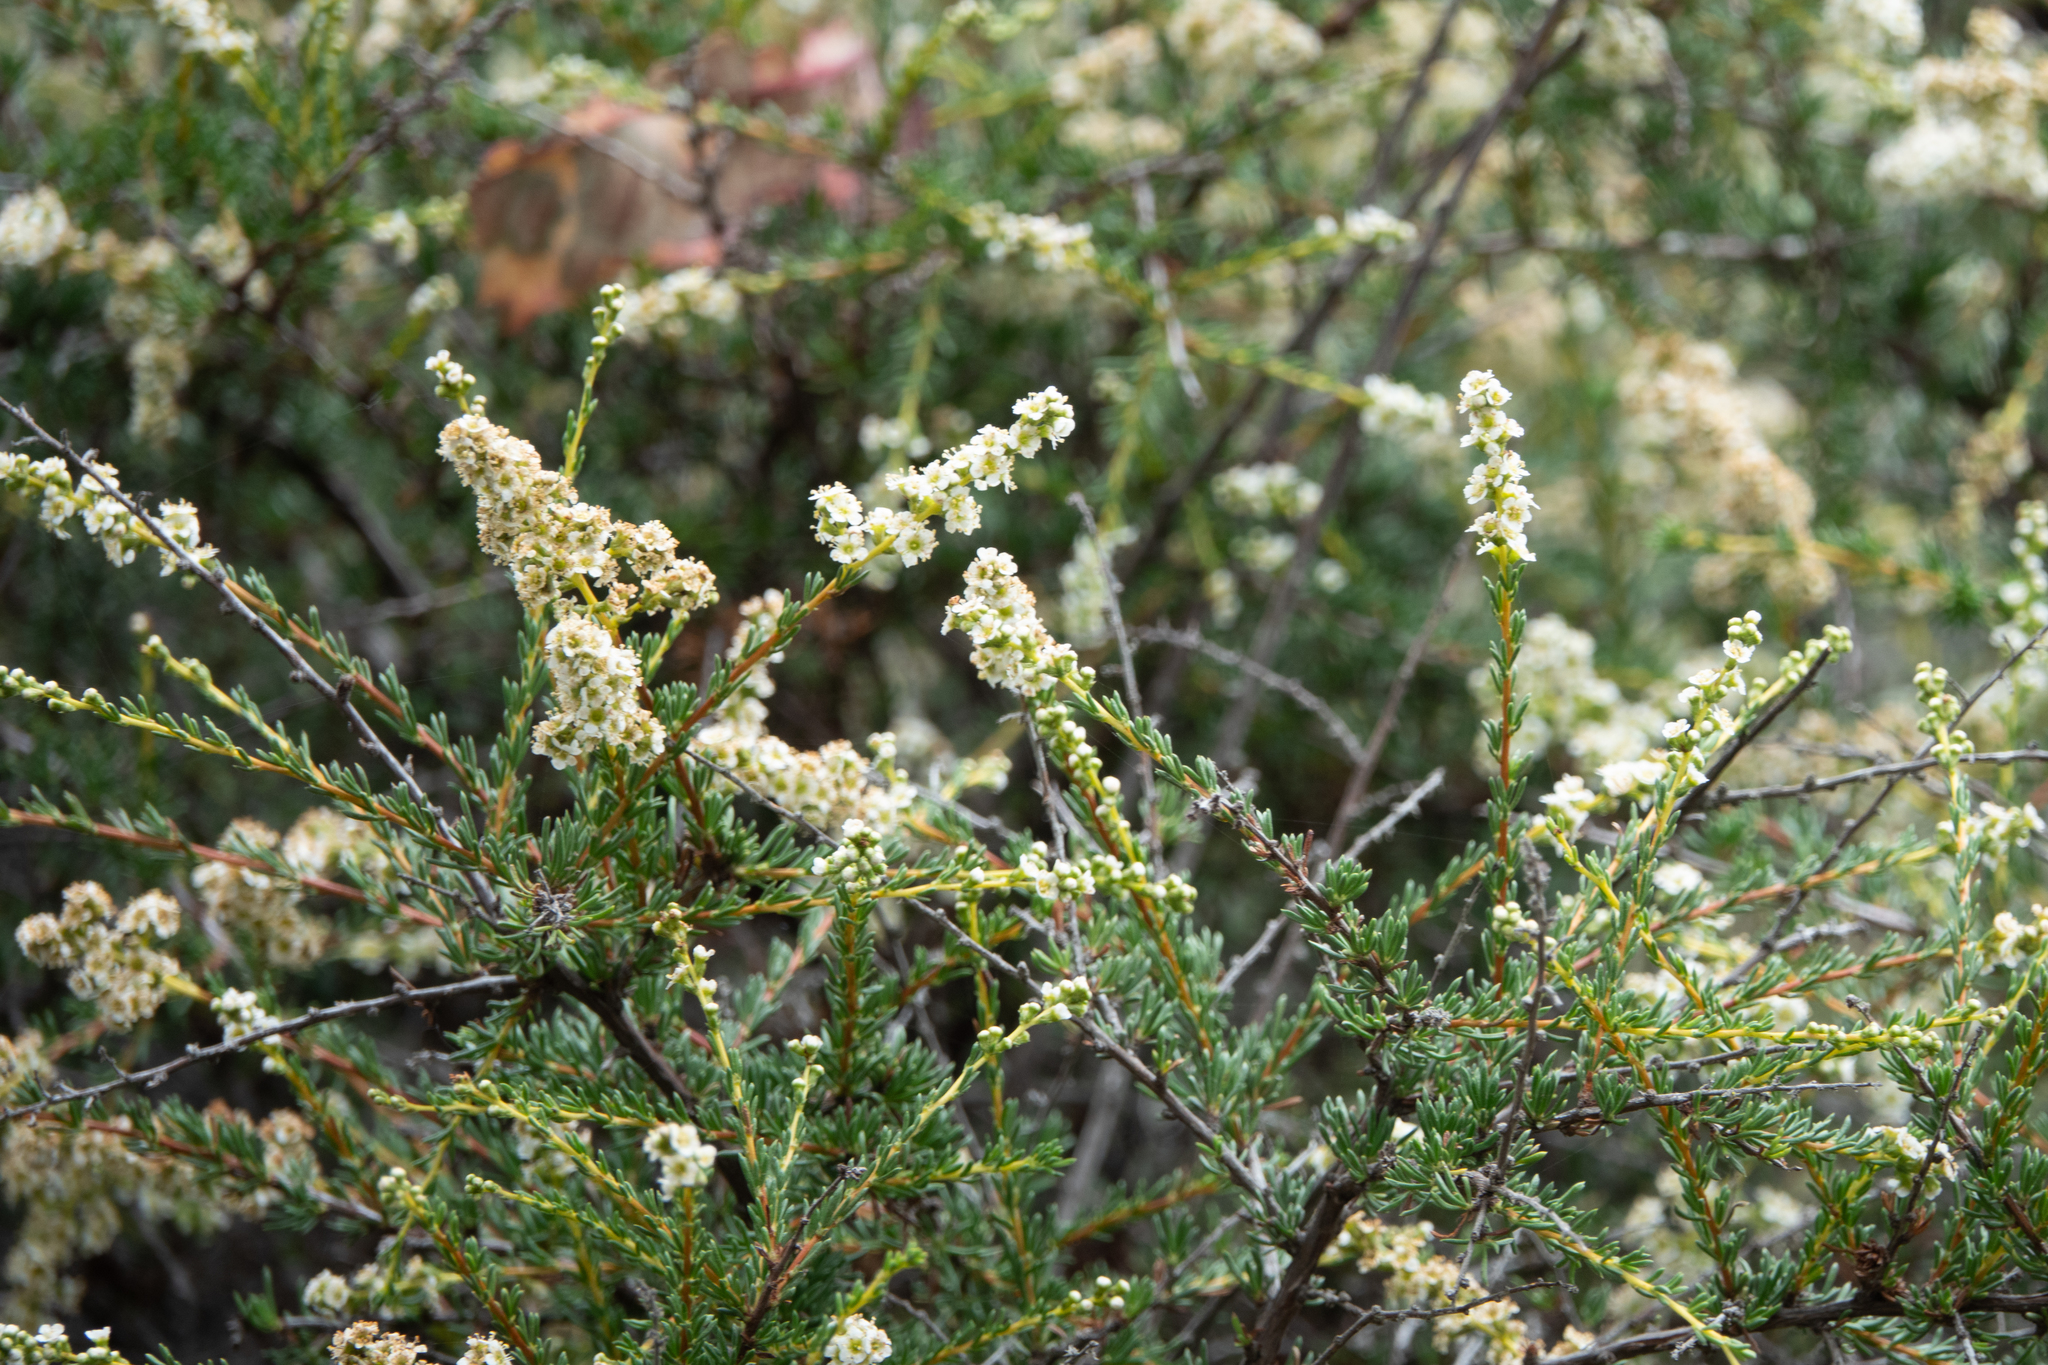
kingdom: Plantae
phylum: Tracheophyta
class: Magnoliopsida
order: Rosales
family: Rosaceae
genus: Adenostoma
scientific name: Adenostoma fasciculatum
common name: Chamise
